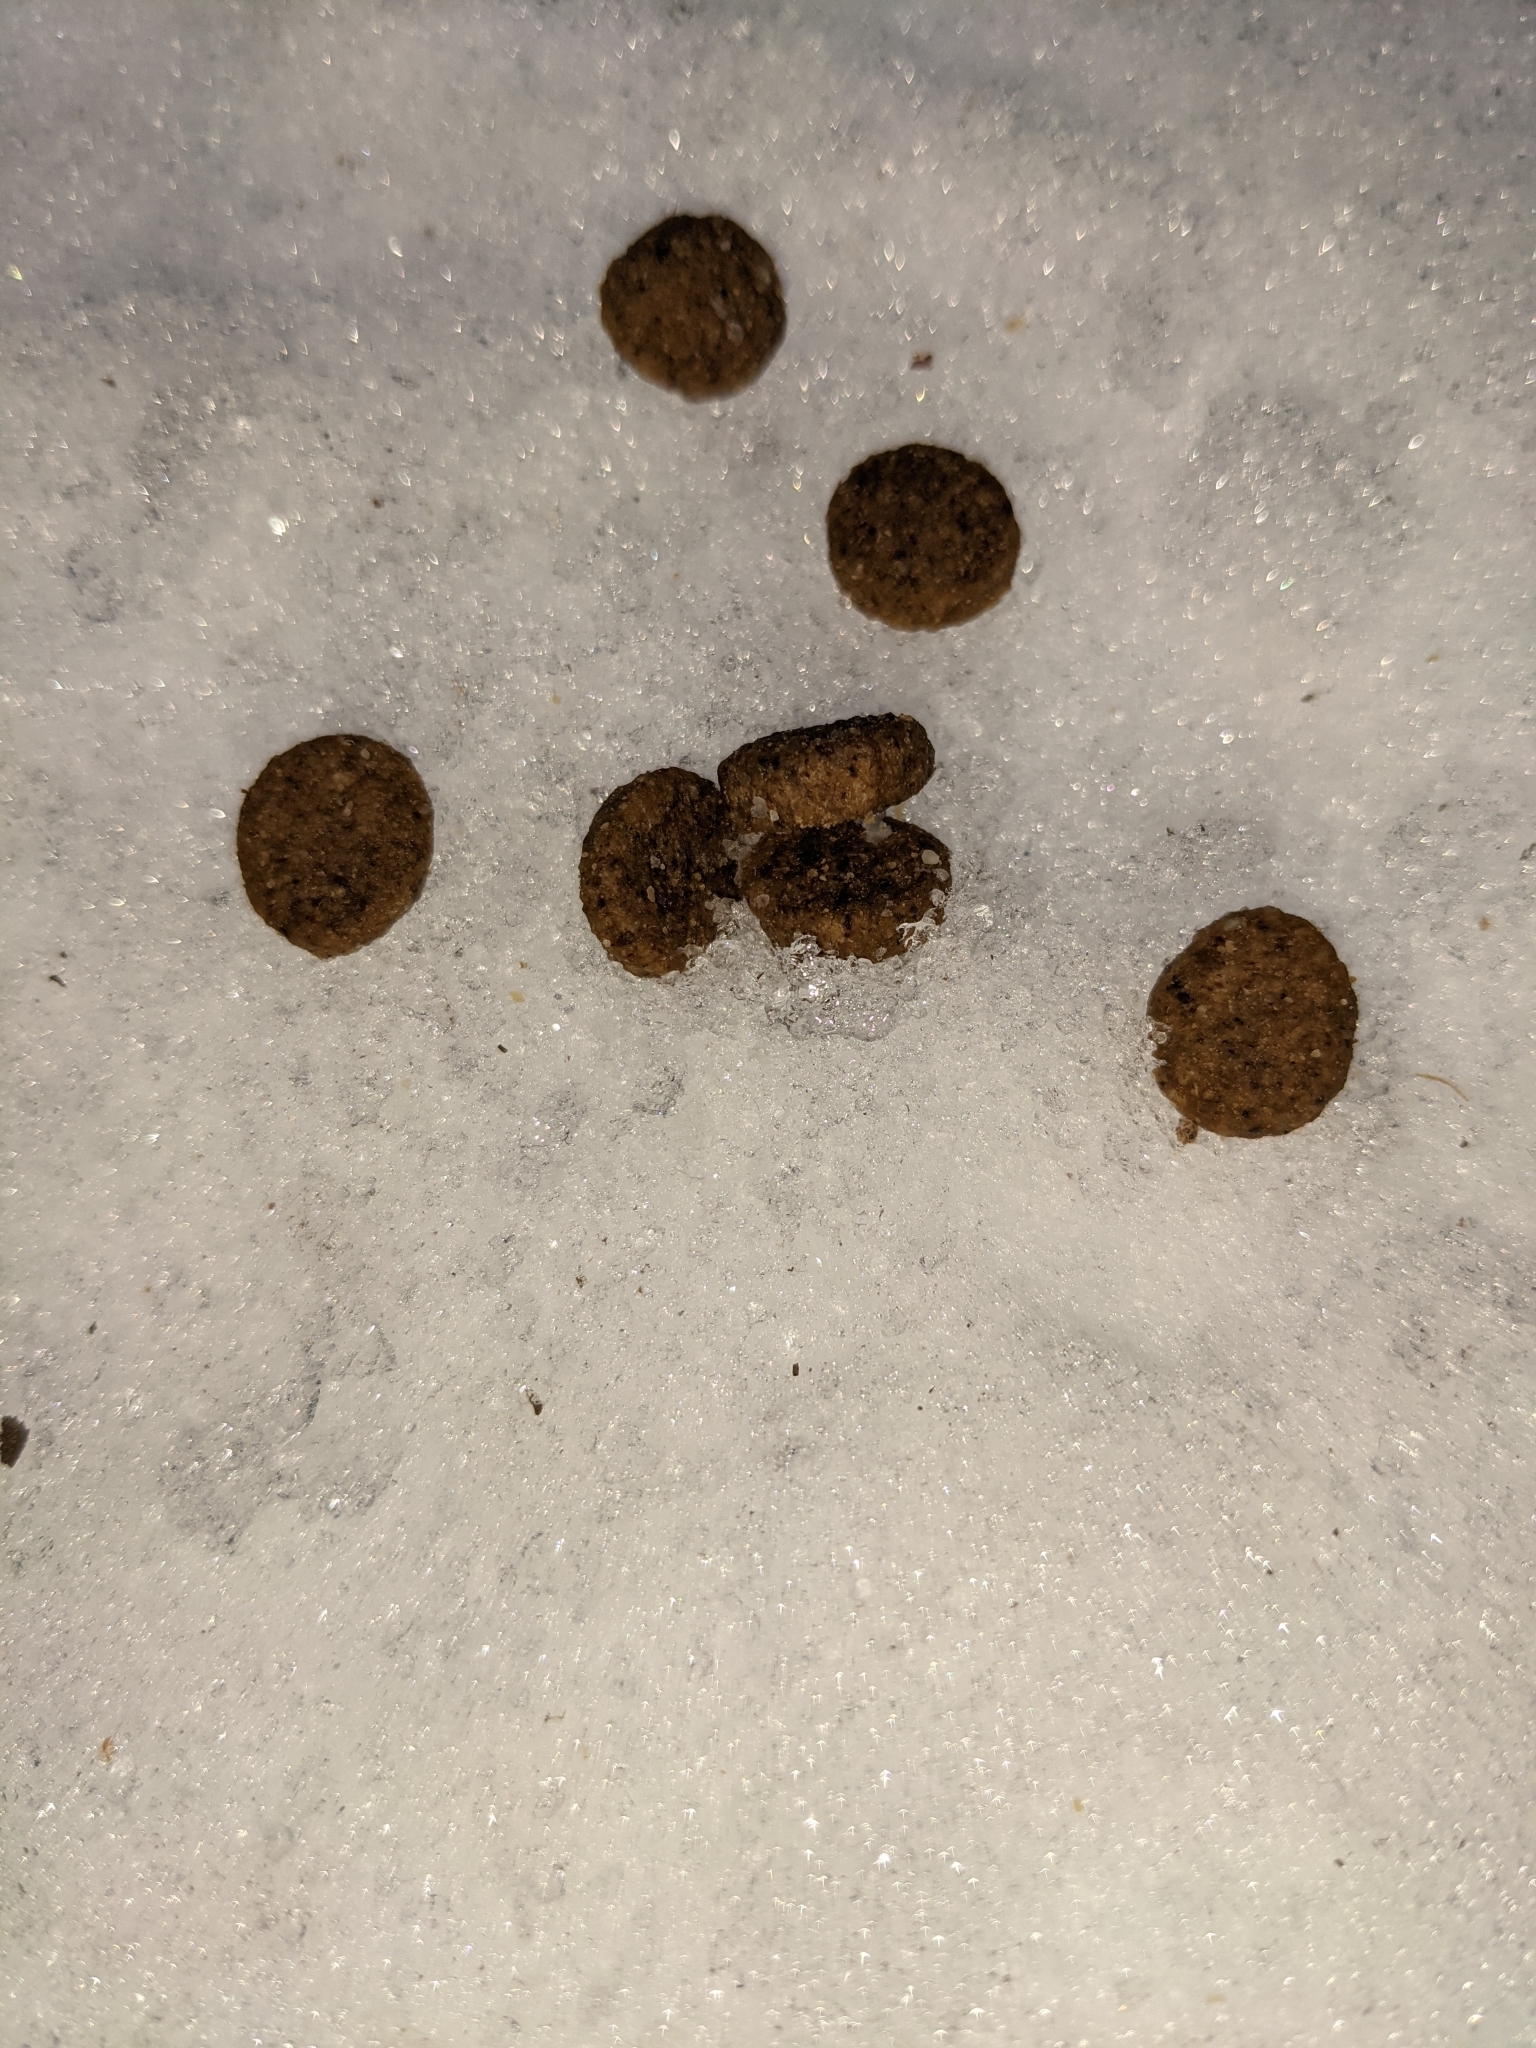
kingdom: Animalia
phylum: Chordata
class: Mammalia
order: Lagomorpha
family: Leporidae
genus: Lepus
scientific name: Lepus americanus
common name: Snowshoe hare
